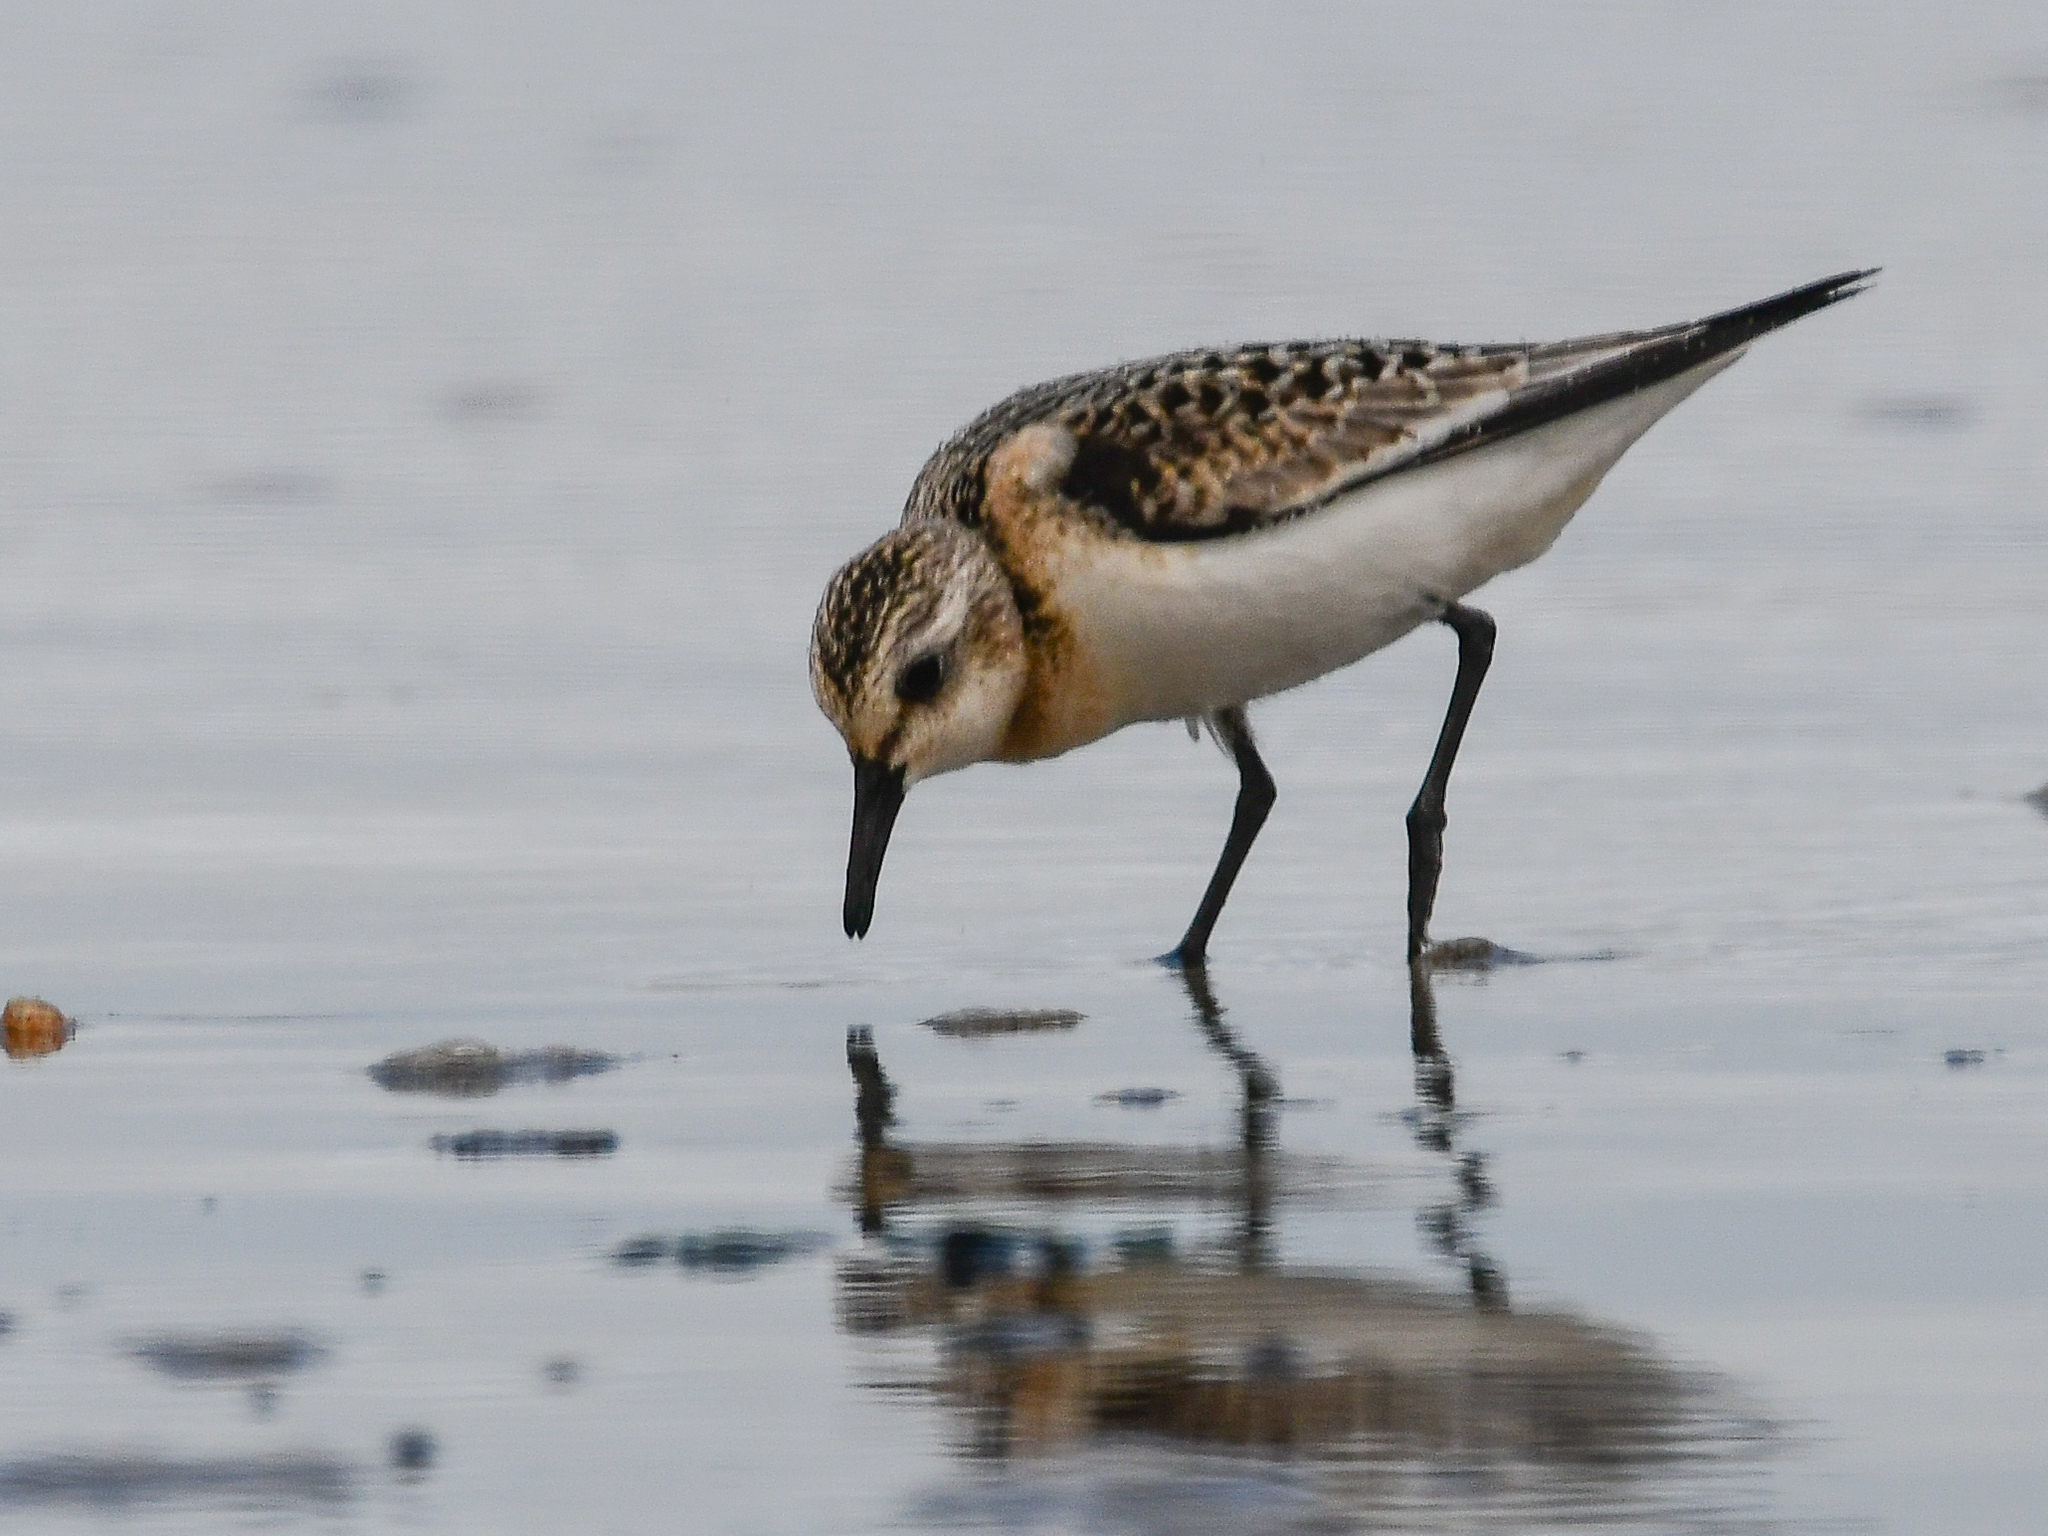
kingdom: Animalia
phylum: Chordata
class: Aves
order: Charadriiformes
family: Scolopacidae
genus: Calidris
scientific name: Calidris alba
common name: Sanderling
